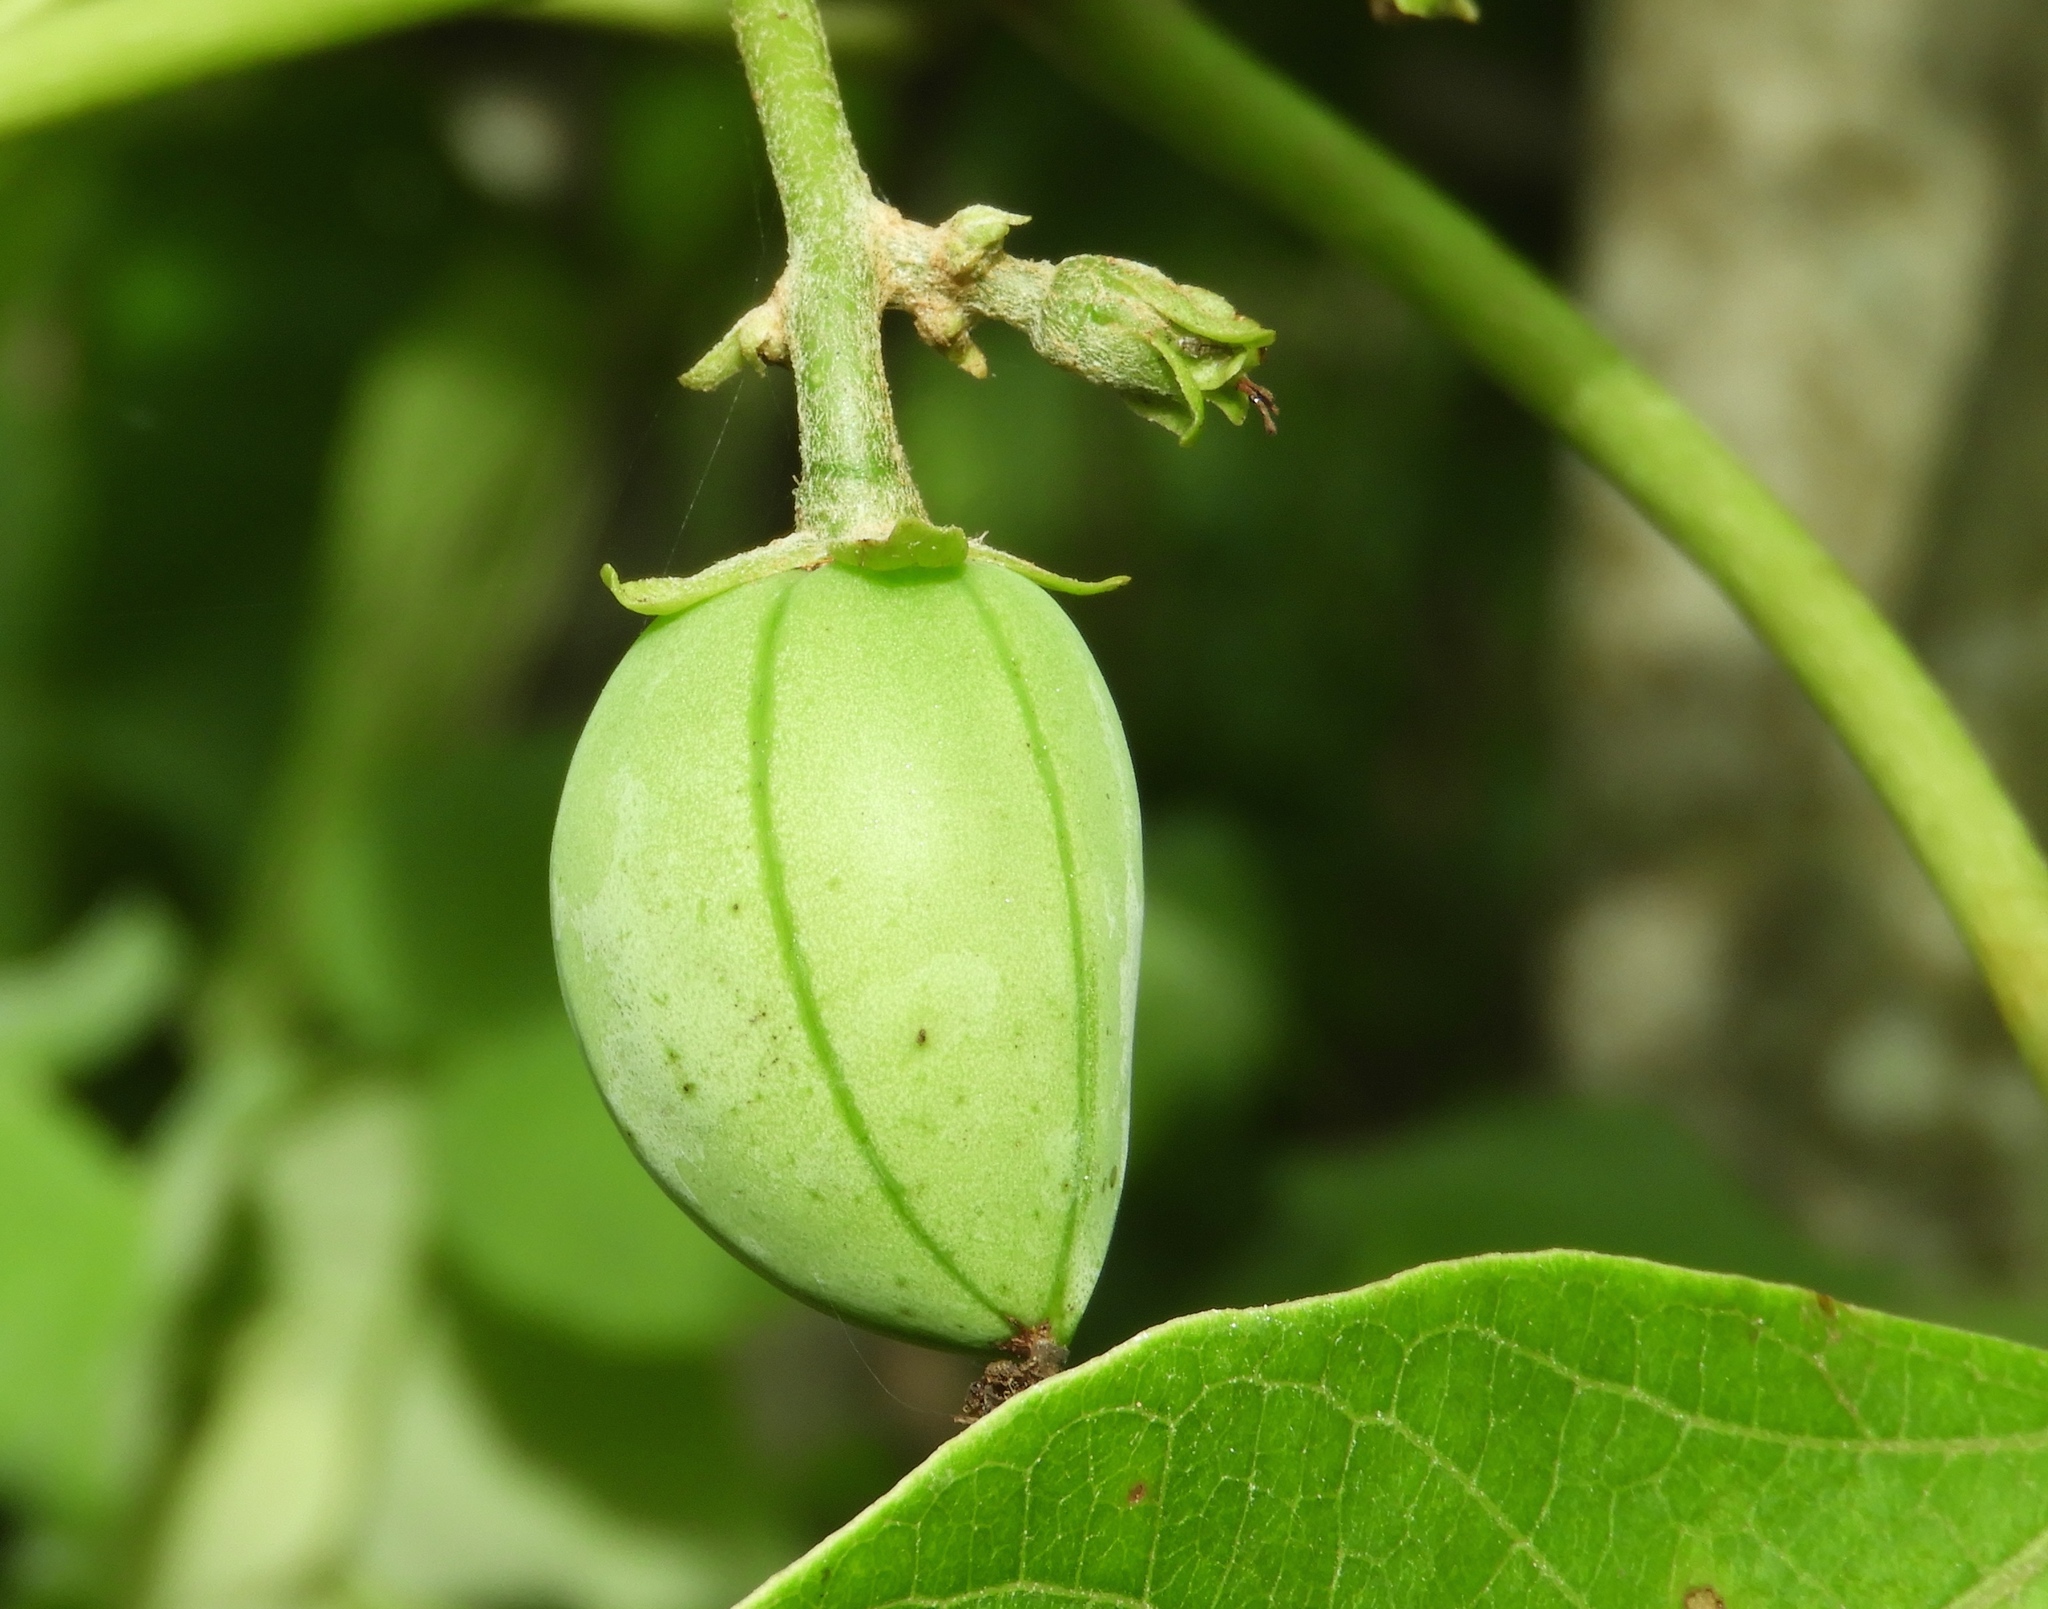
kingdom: Plantae
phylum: Tracheophyta
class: Magnoliopsida
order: Malpighiales
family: Euphorbiaceae
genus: Jatropha
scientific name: Jatropha curcas
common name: Barbados nut
